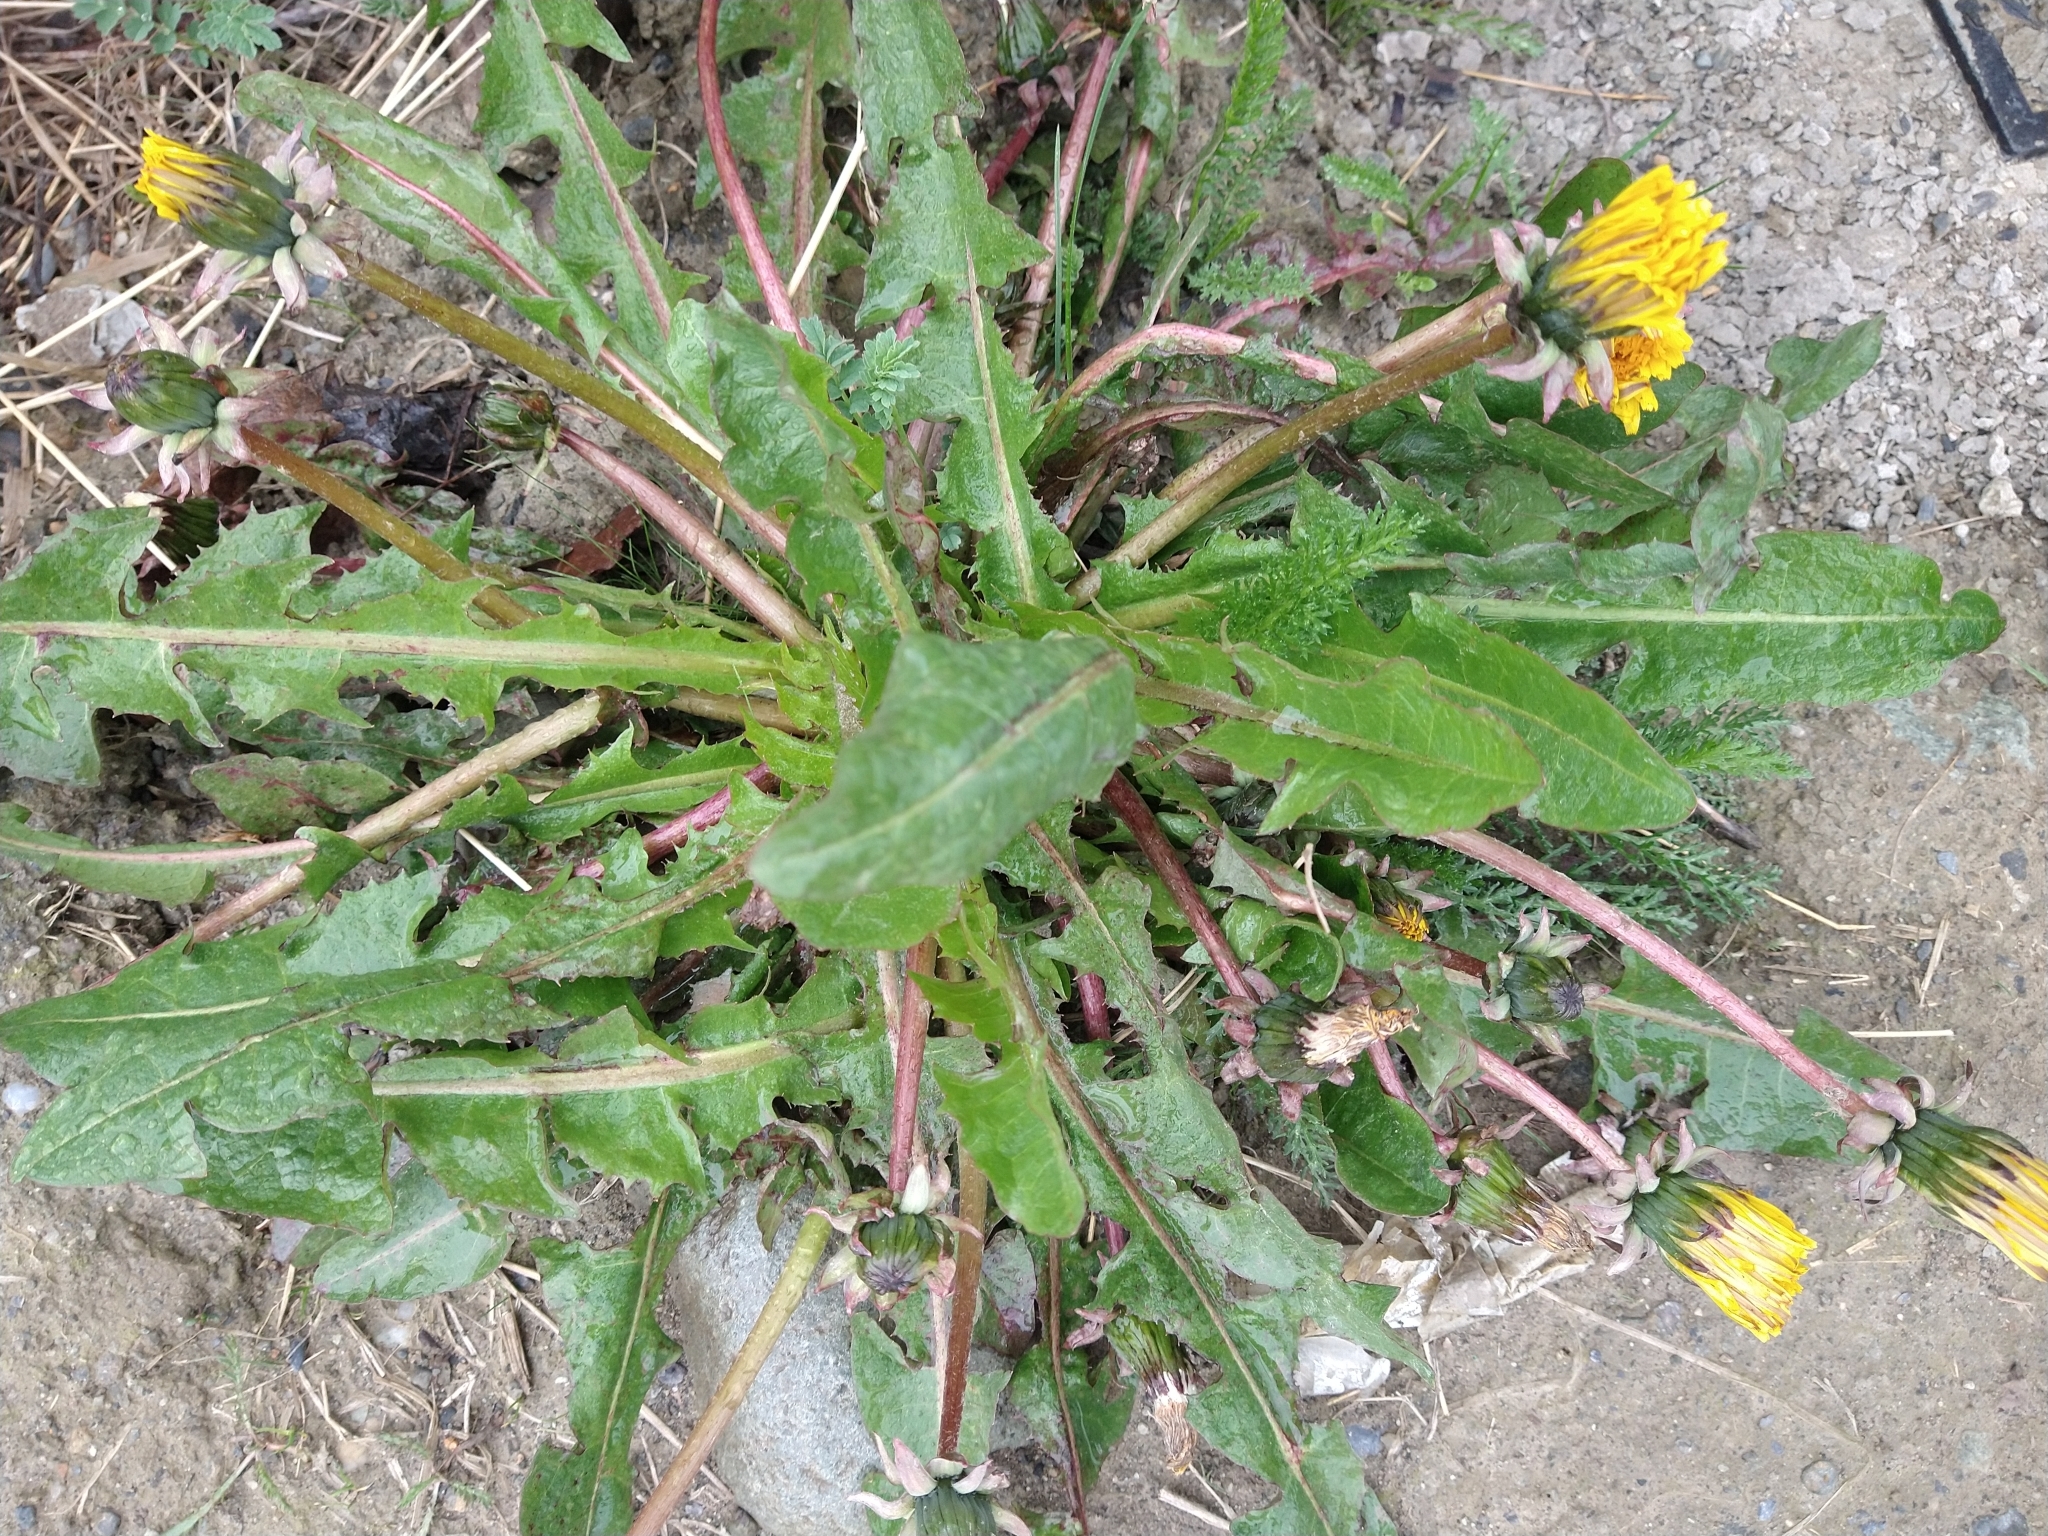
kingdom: Plantae
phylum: Tracheophyta
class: Magnoliopsida
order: Asterales
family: Asteraceae
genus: Taraxacum
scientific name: Taraxacum officinale
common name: Common dandelion
